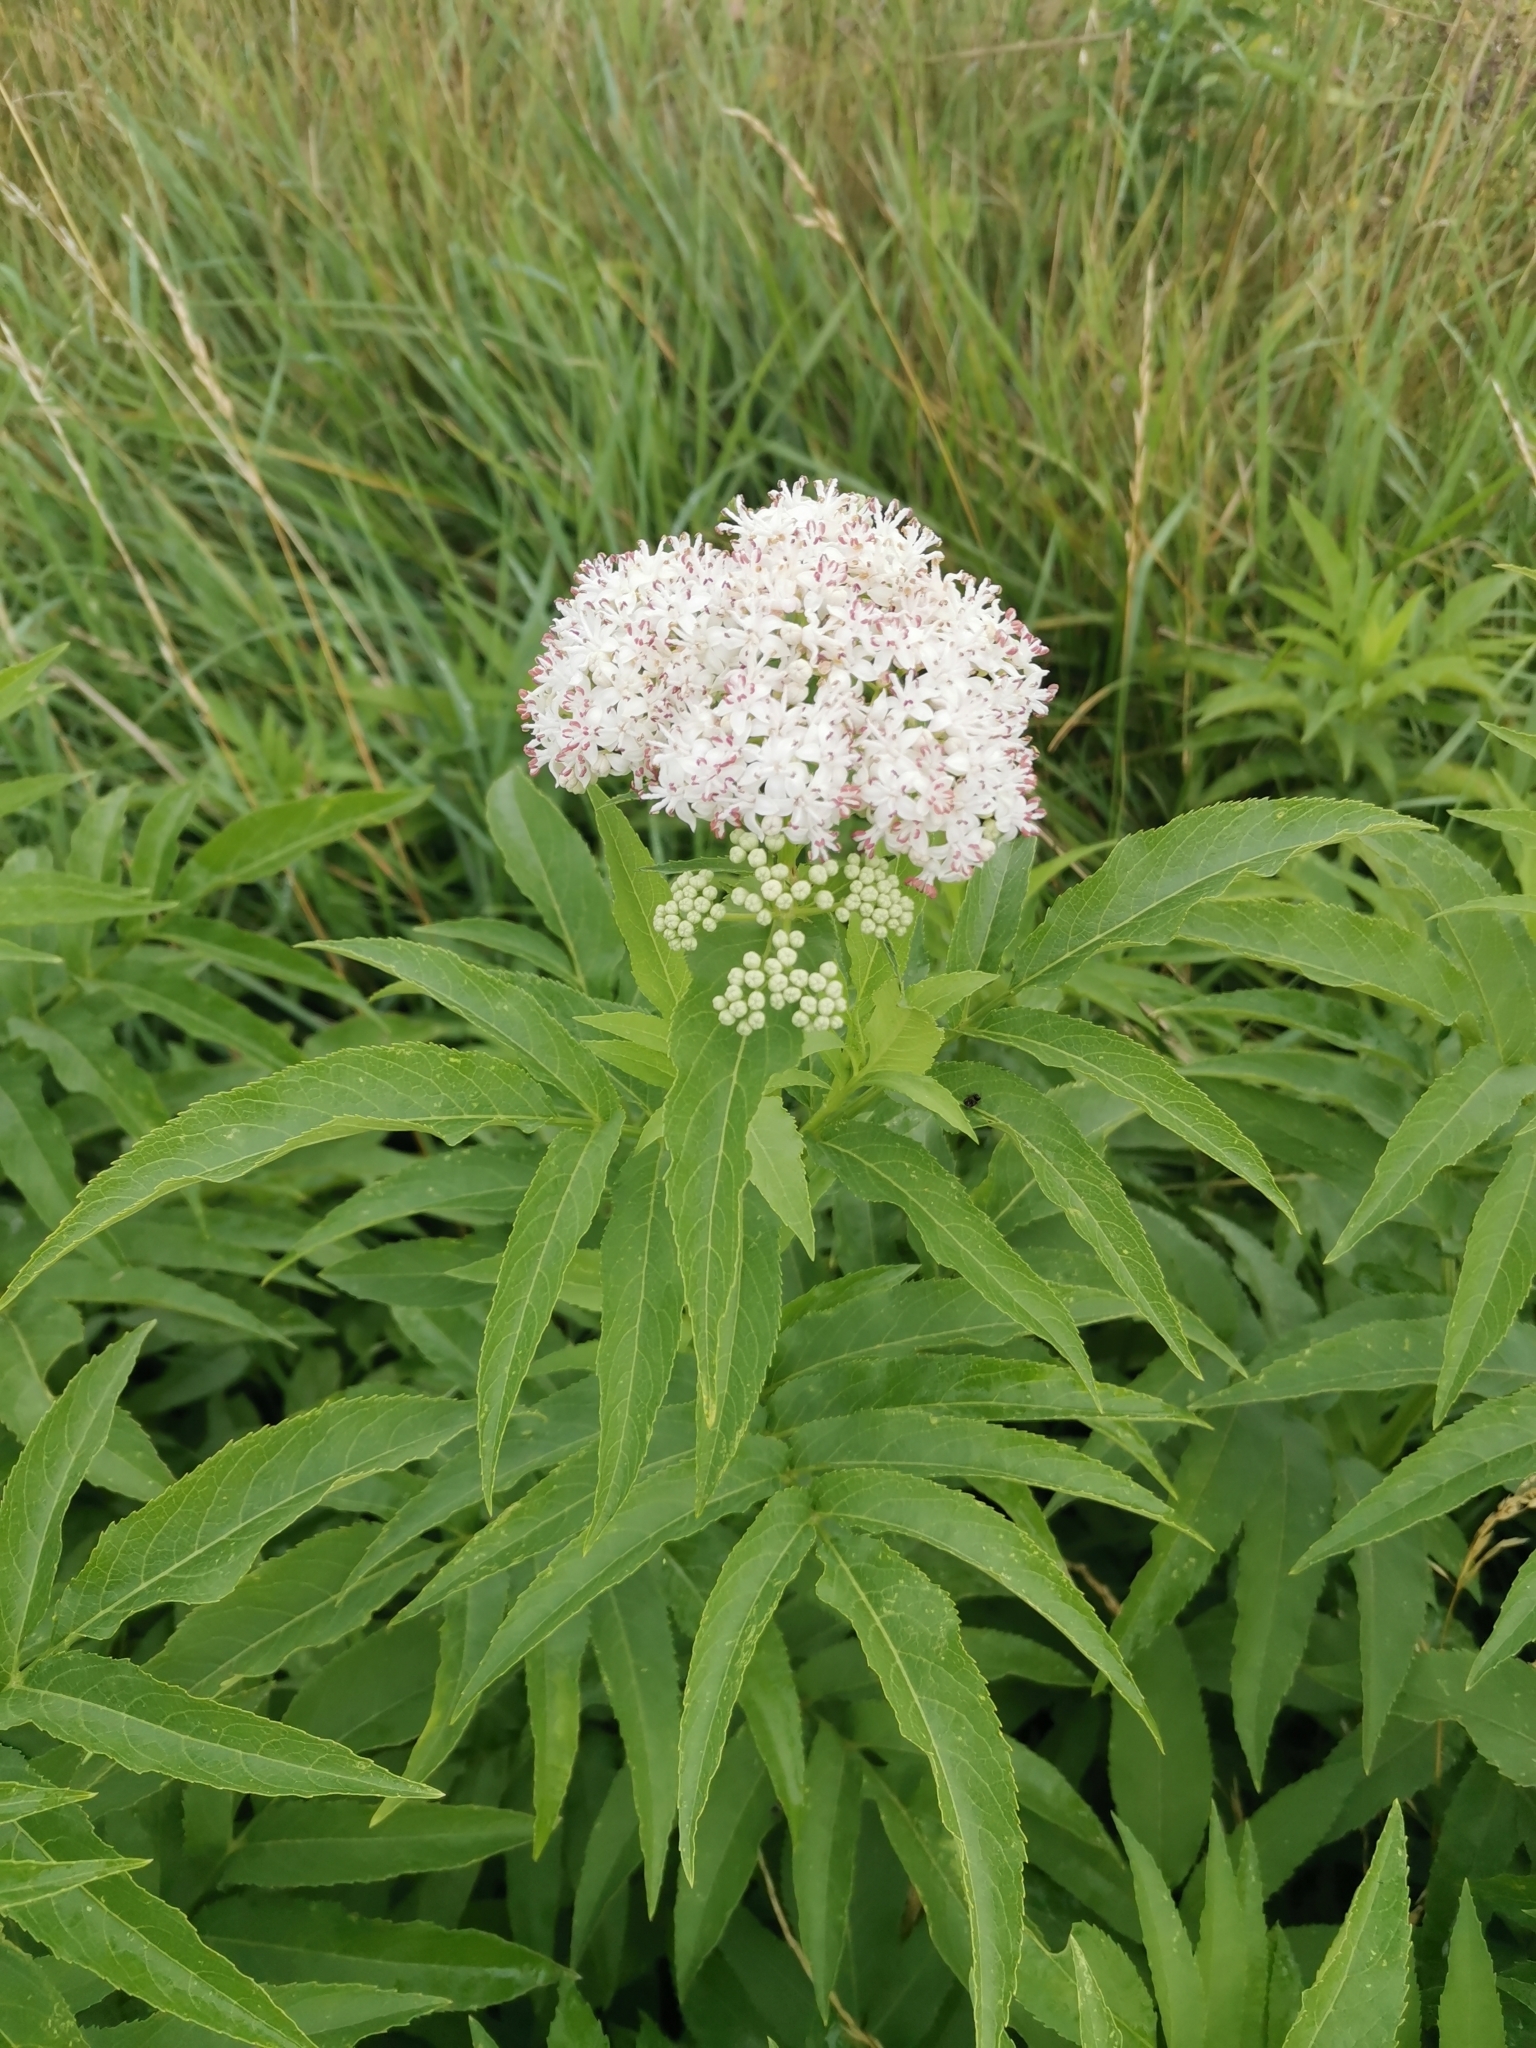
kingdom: Plantae
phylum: Tracheophyta
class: Magnoliopsida
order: Dipsacales
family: Viburnaceae
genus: Sambucus
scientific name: Sambucus ebulus
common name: Dwarf elder
